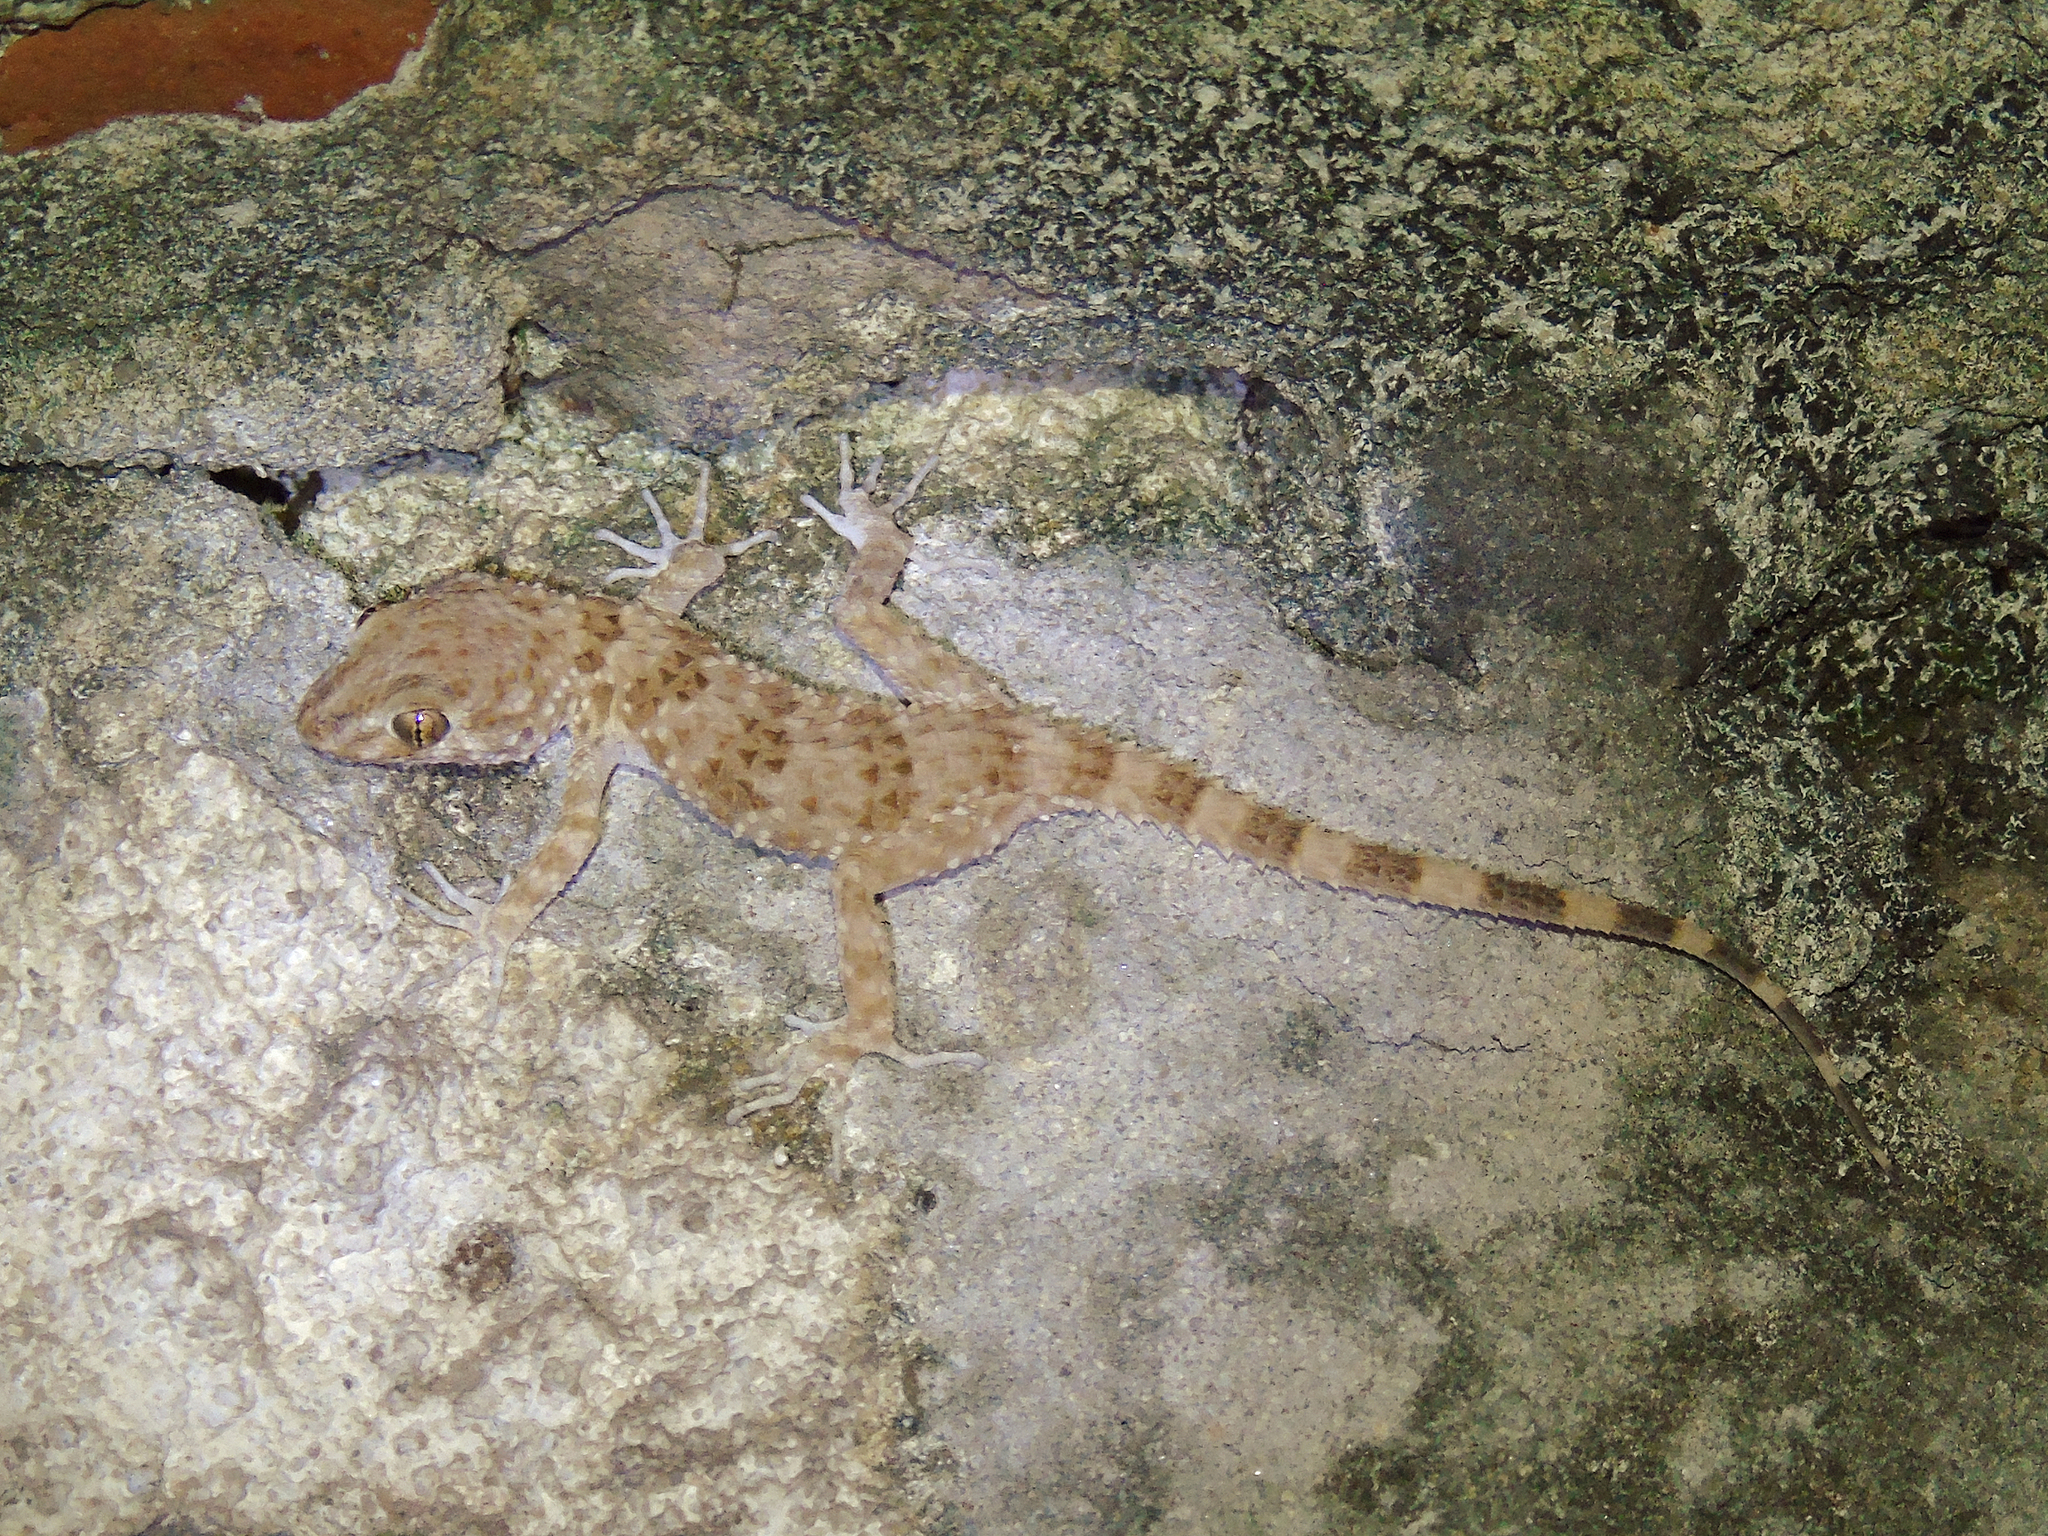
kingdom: Animalia
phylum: Chordata
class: Squamata
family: Gekkonidae
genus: Tenuidactylus
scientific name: Tenuidactylus caspius
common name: Caspian bent-toed gecko
